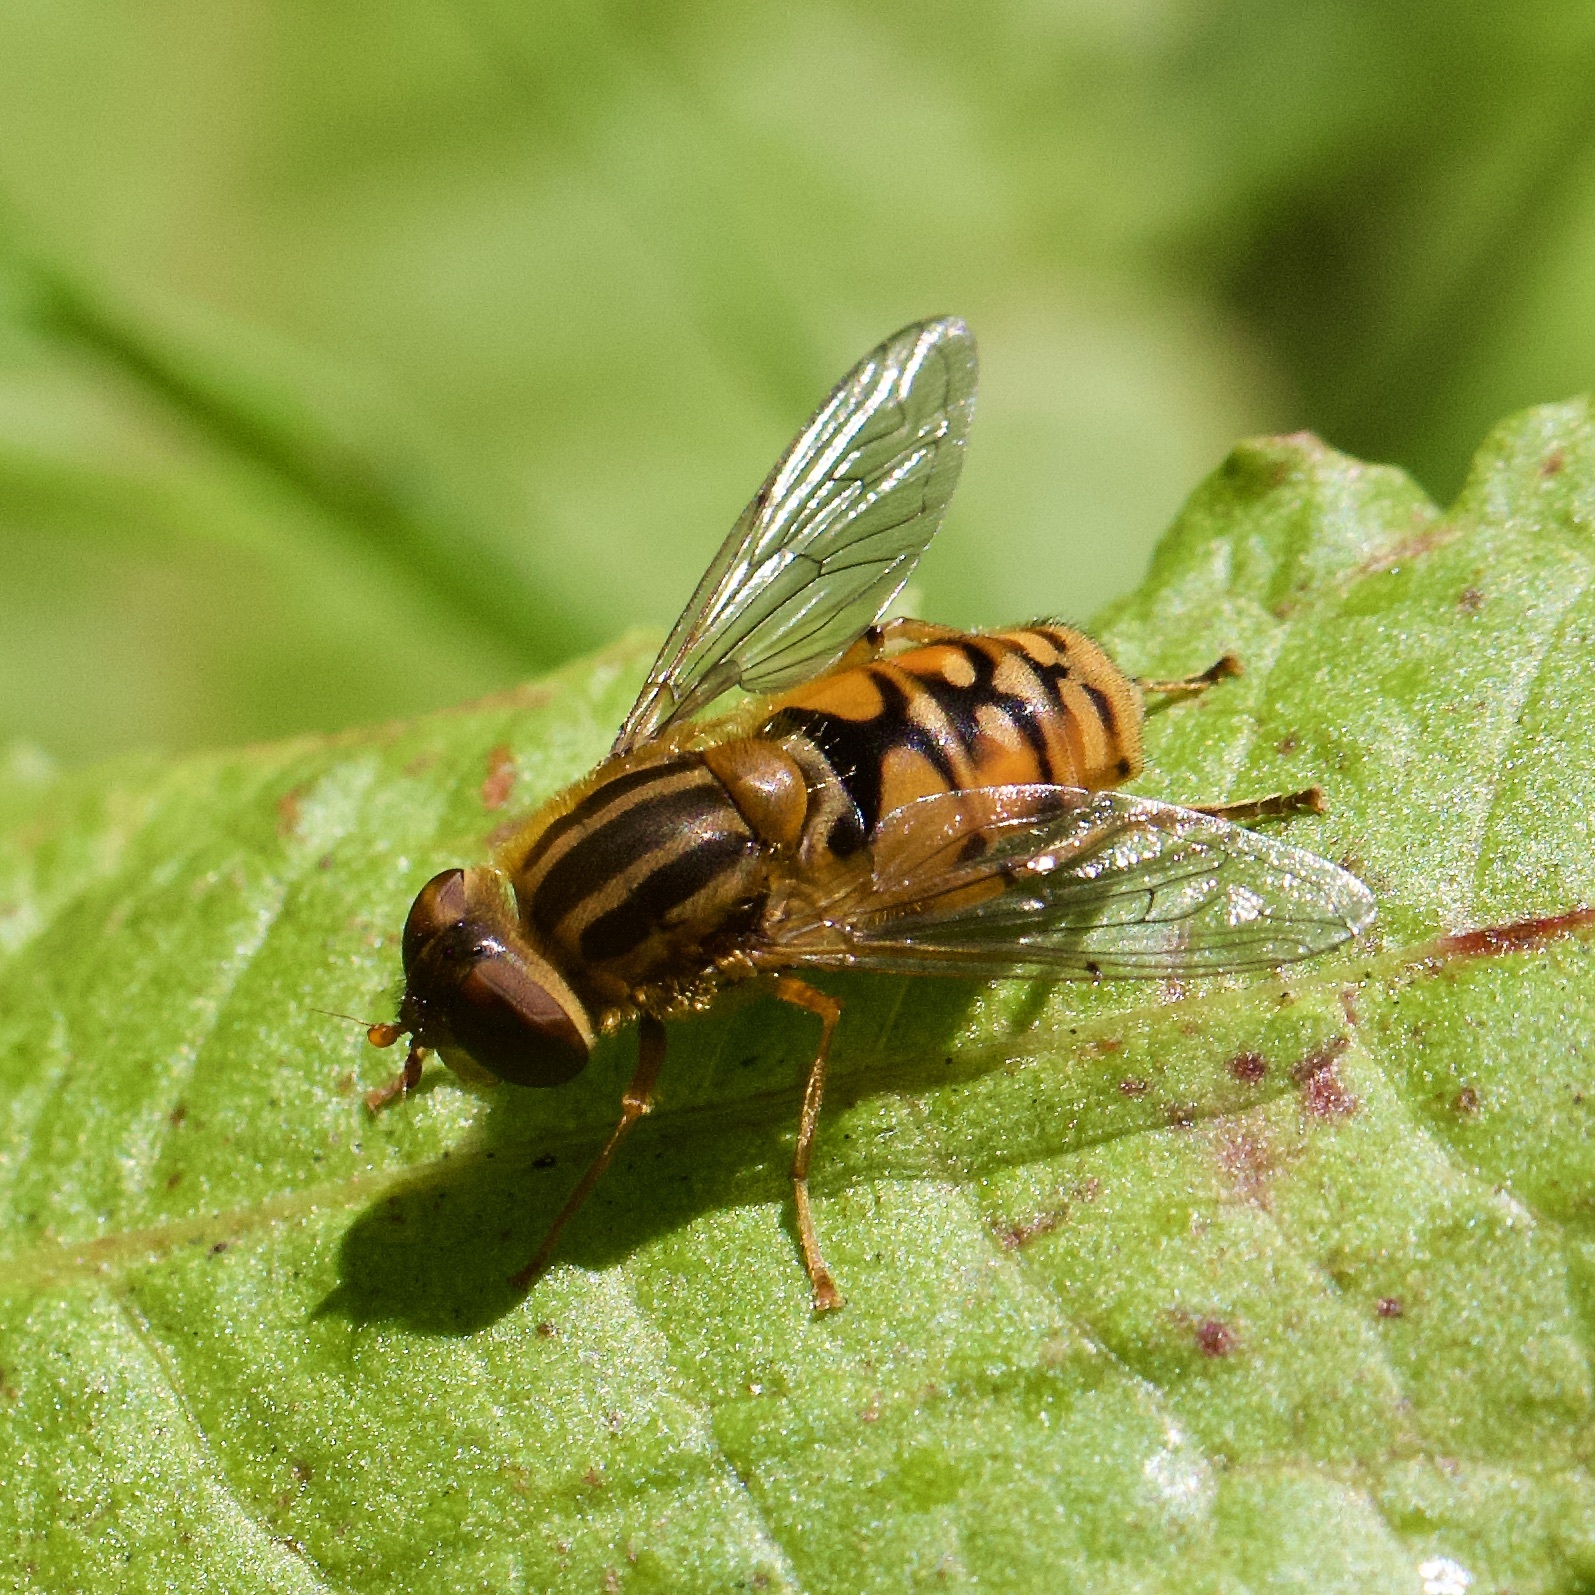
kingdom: Animalia
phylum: Arthropoda
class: Insecta
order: Diptera
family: Syrphidae
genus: Parhelophilus
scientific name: Parhelophilus
